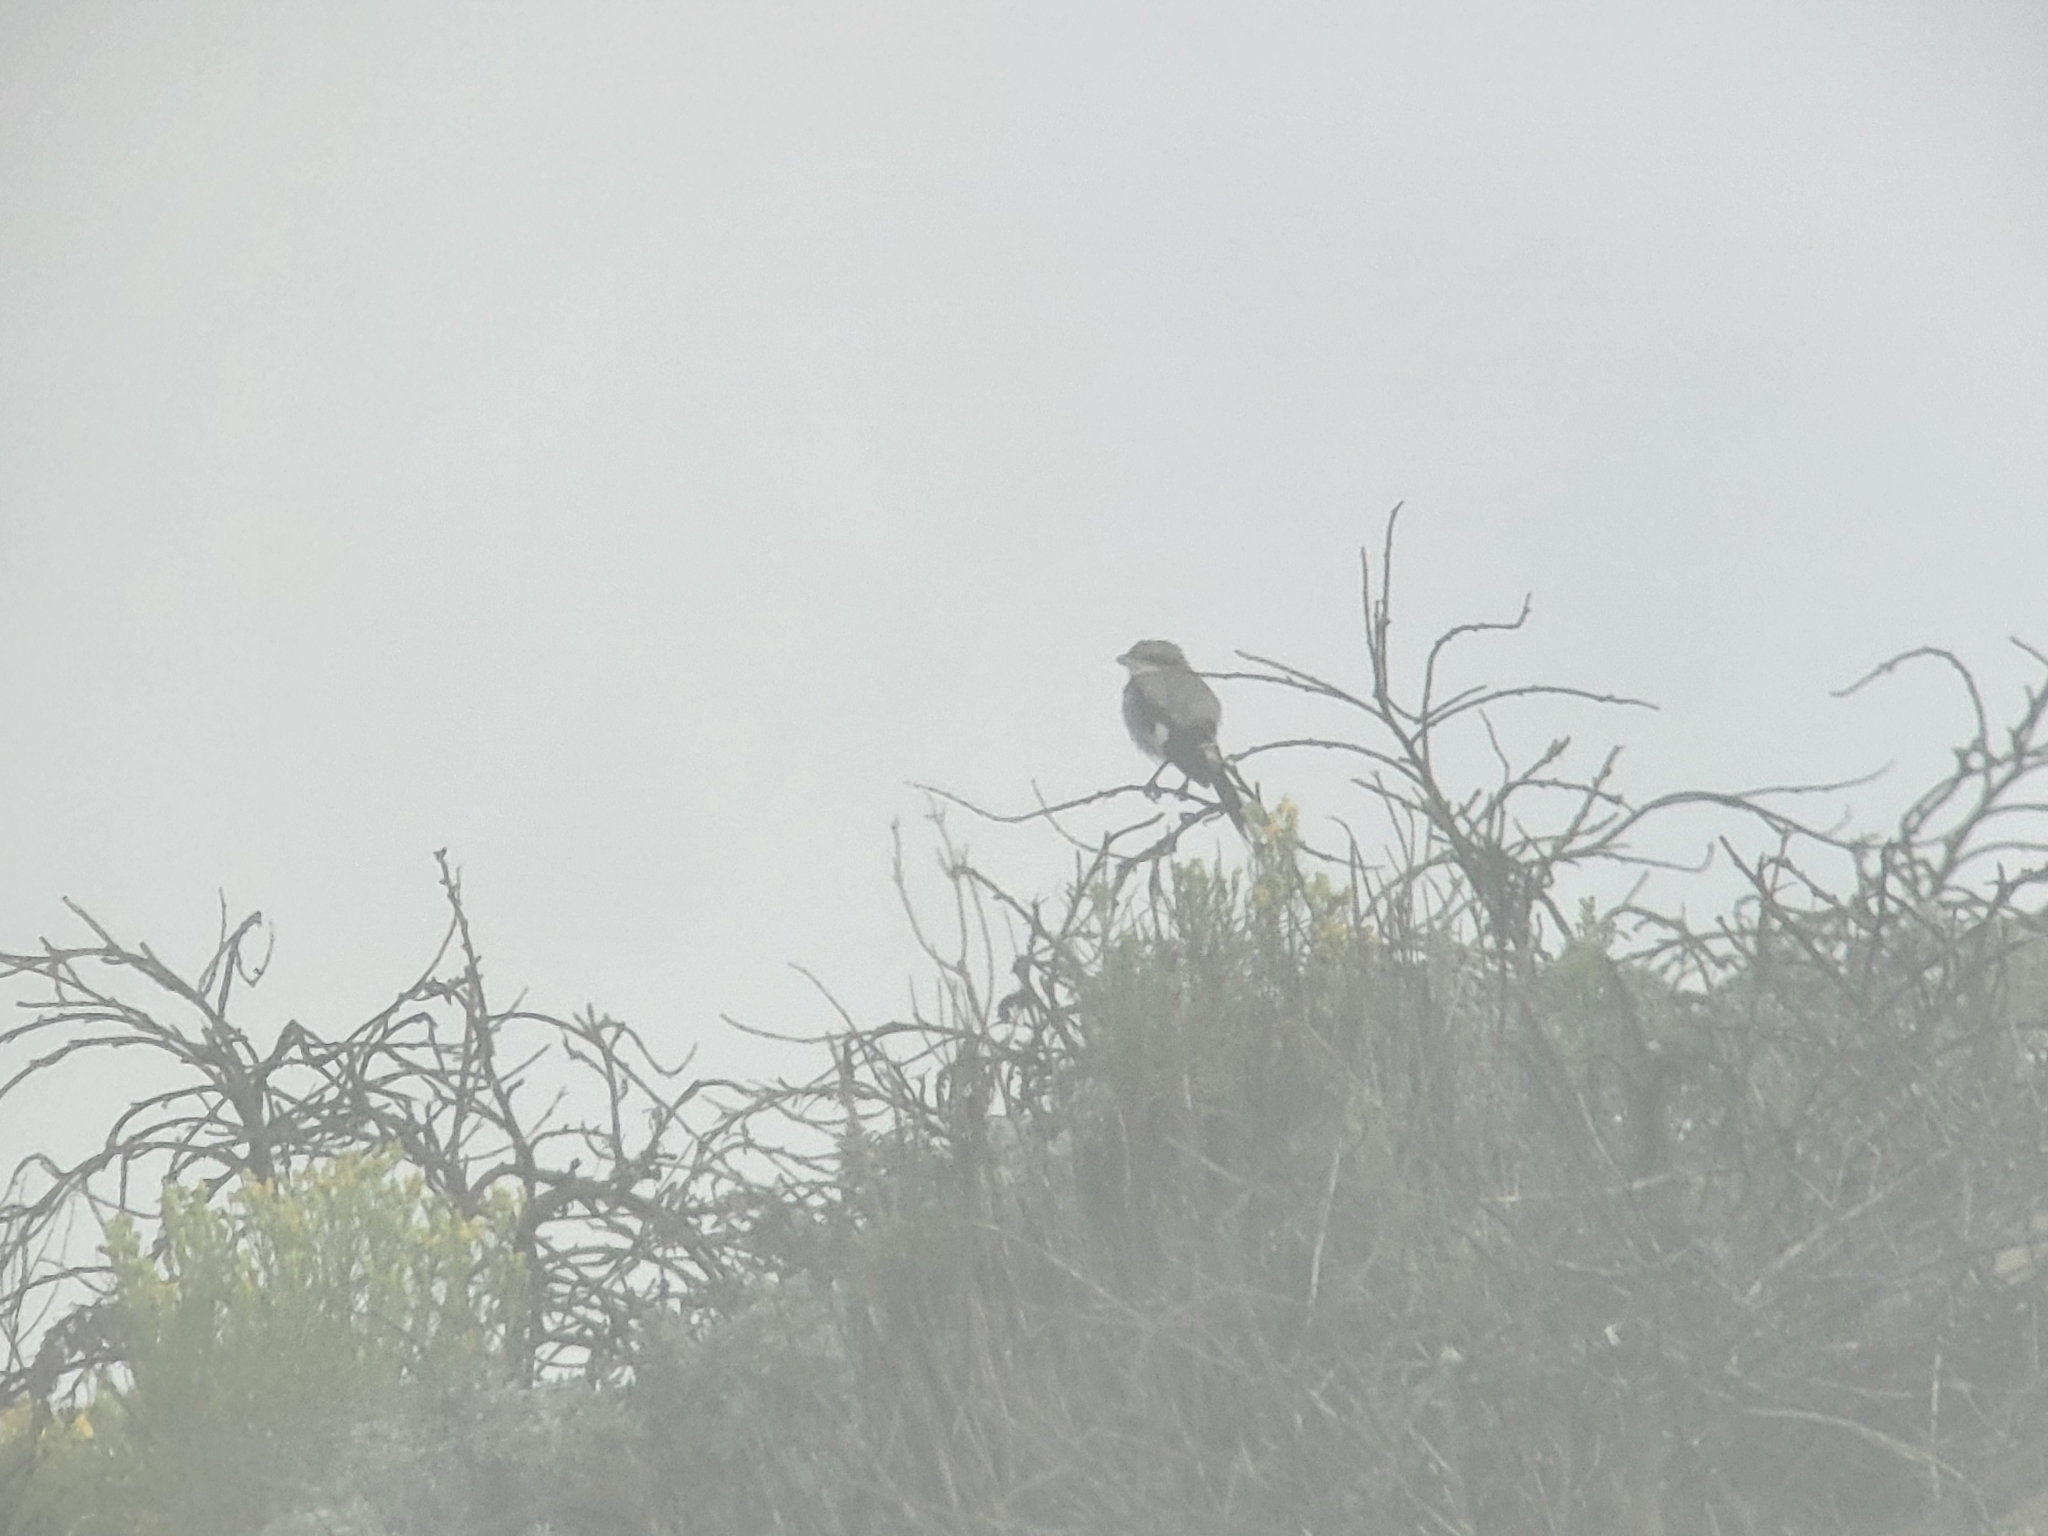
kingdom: Animalia
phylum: Chordata
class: Aves
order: Passeriformes
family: Laniidae
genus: Lanius
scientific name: Lanius ludovicianus
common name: Loggerhead shrike
